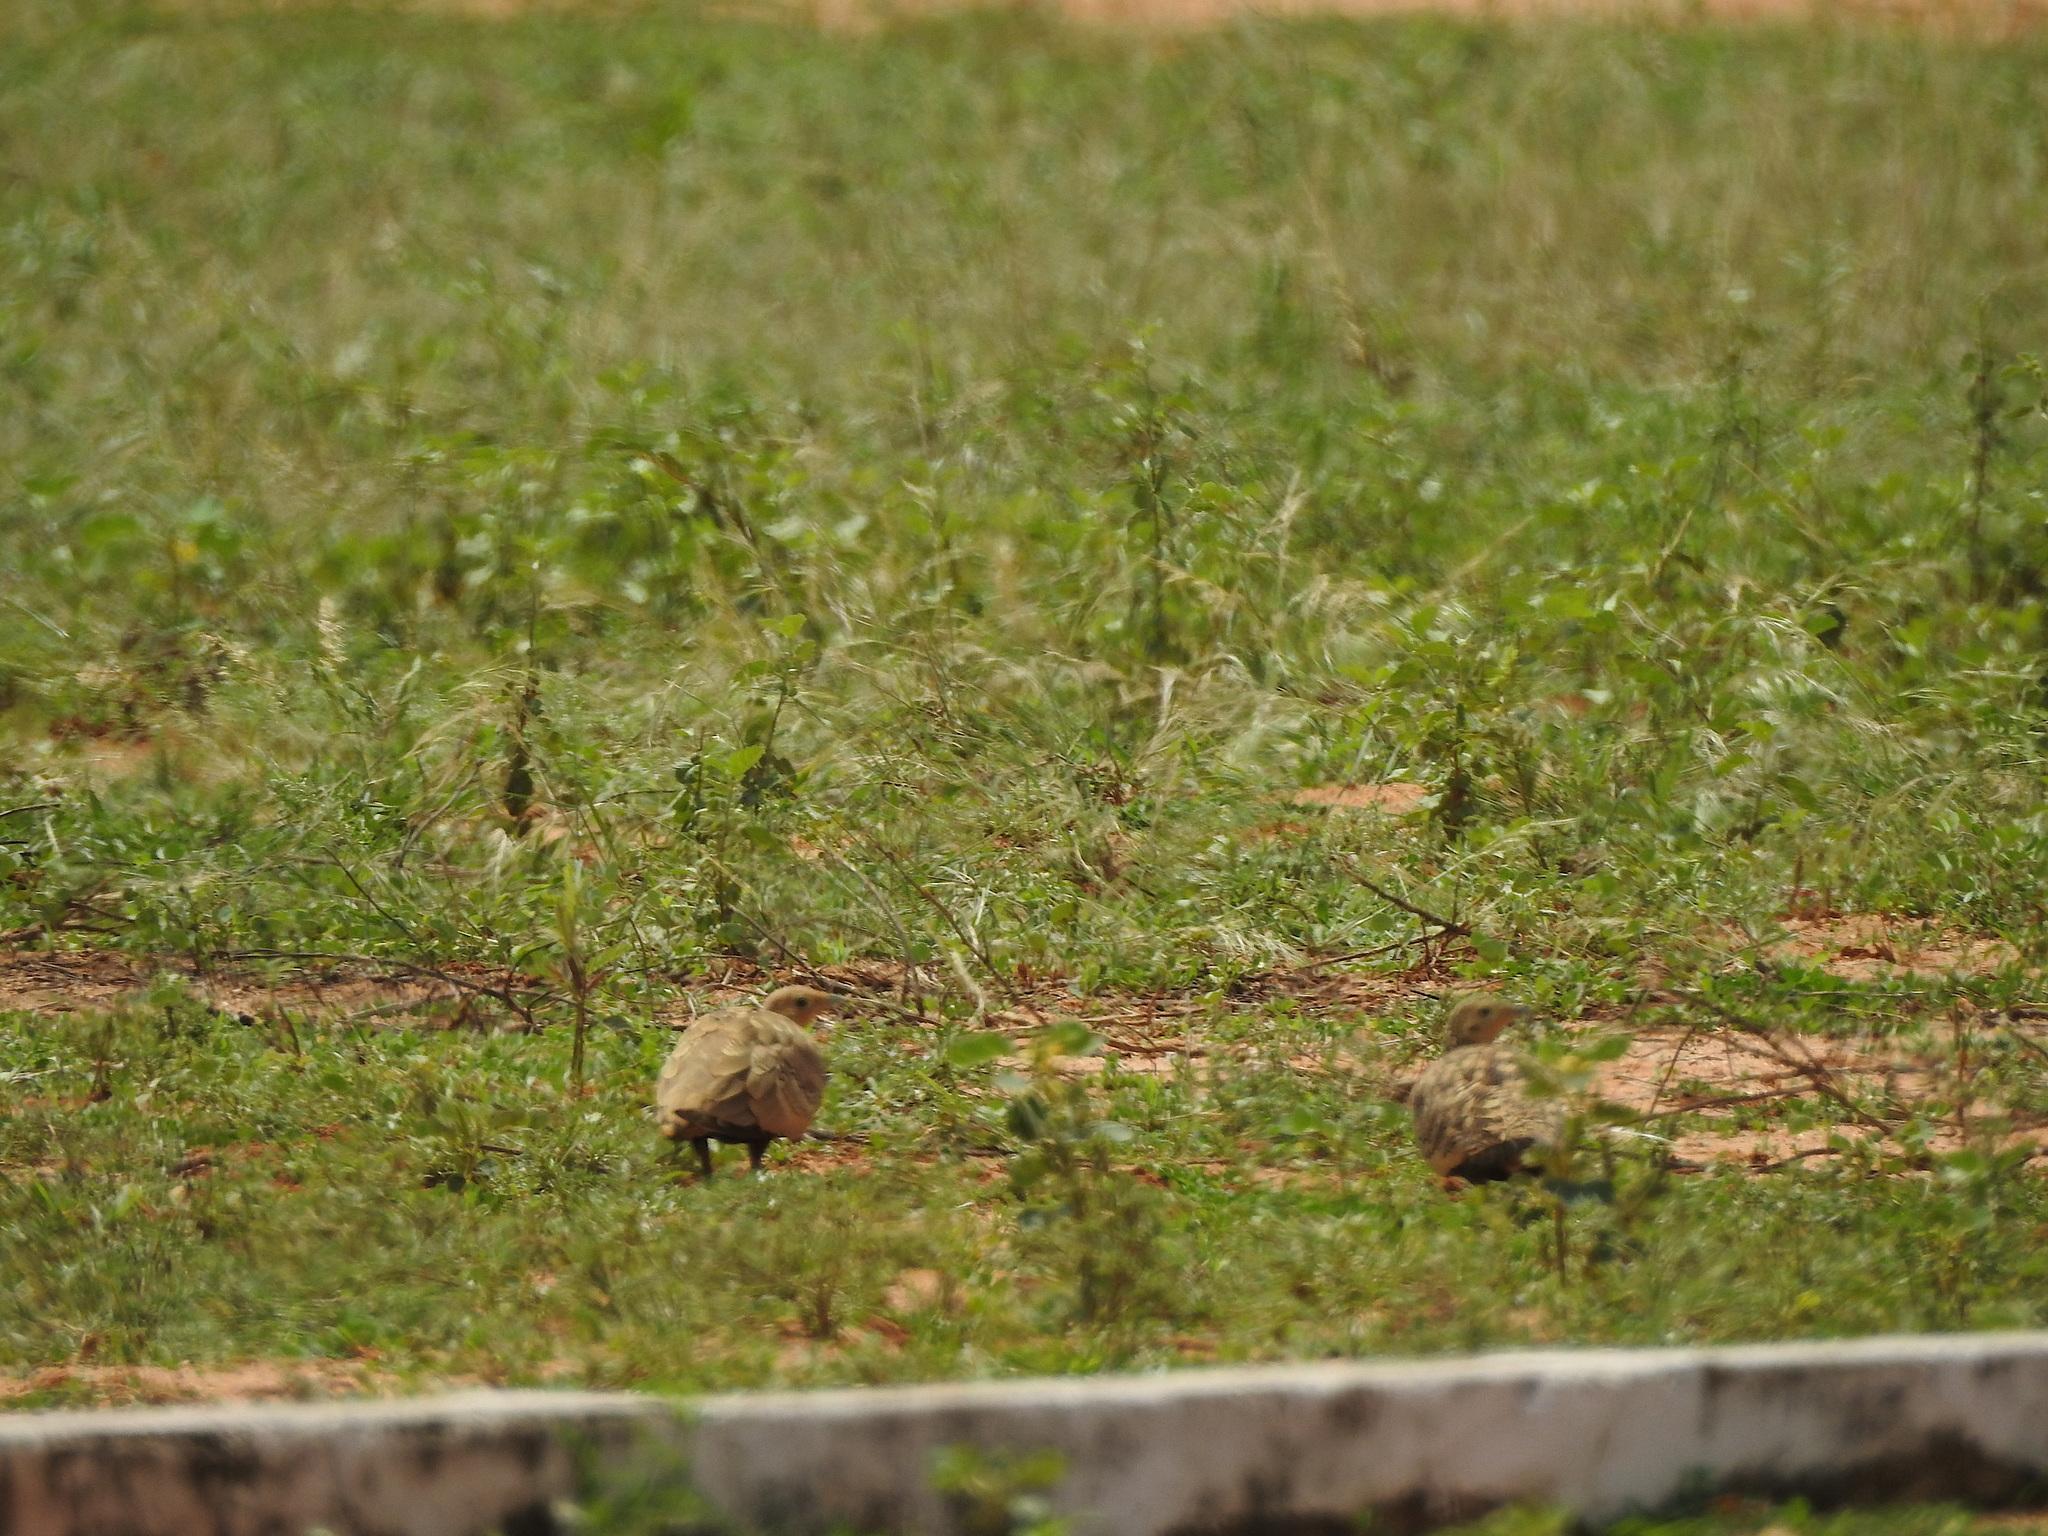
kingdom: Animalia
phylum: Chordata
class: Aves
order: Pteroclidiformes
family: Pteroclididae
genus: Pterocles
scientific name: Pterocles exustus
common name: Chestnut-bellied sandgrouse
